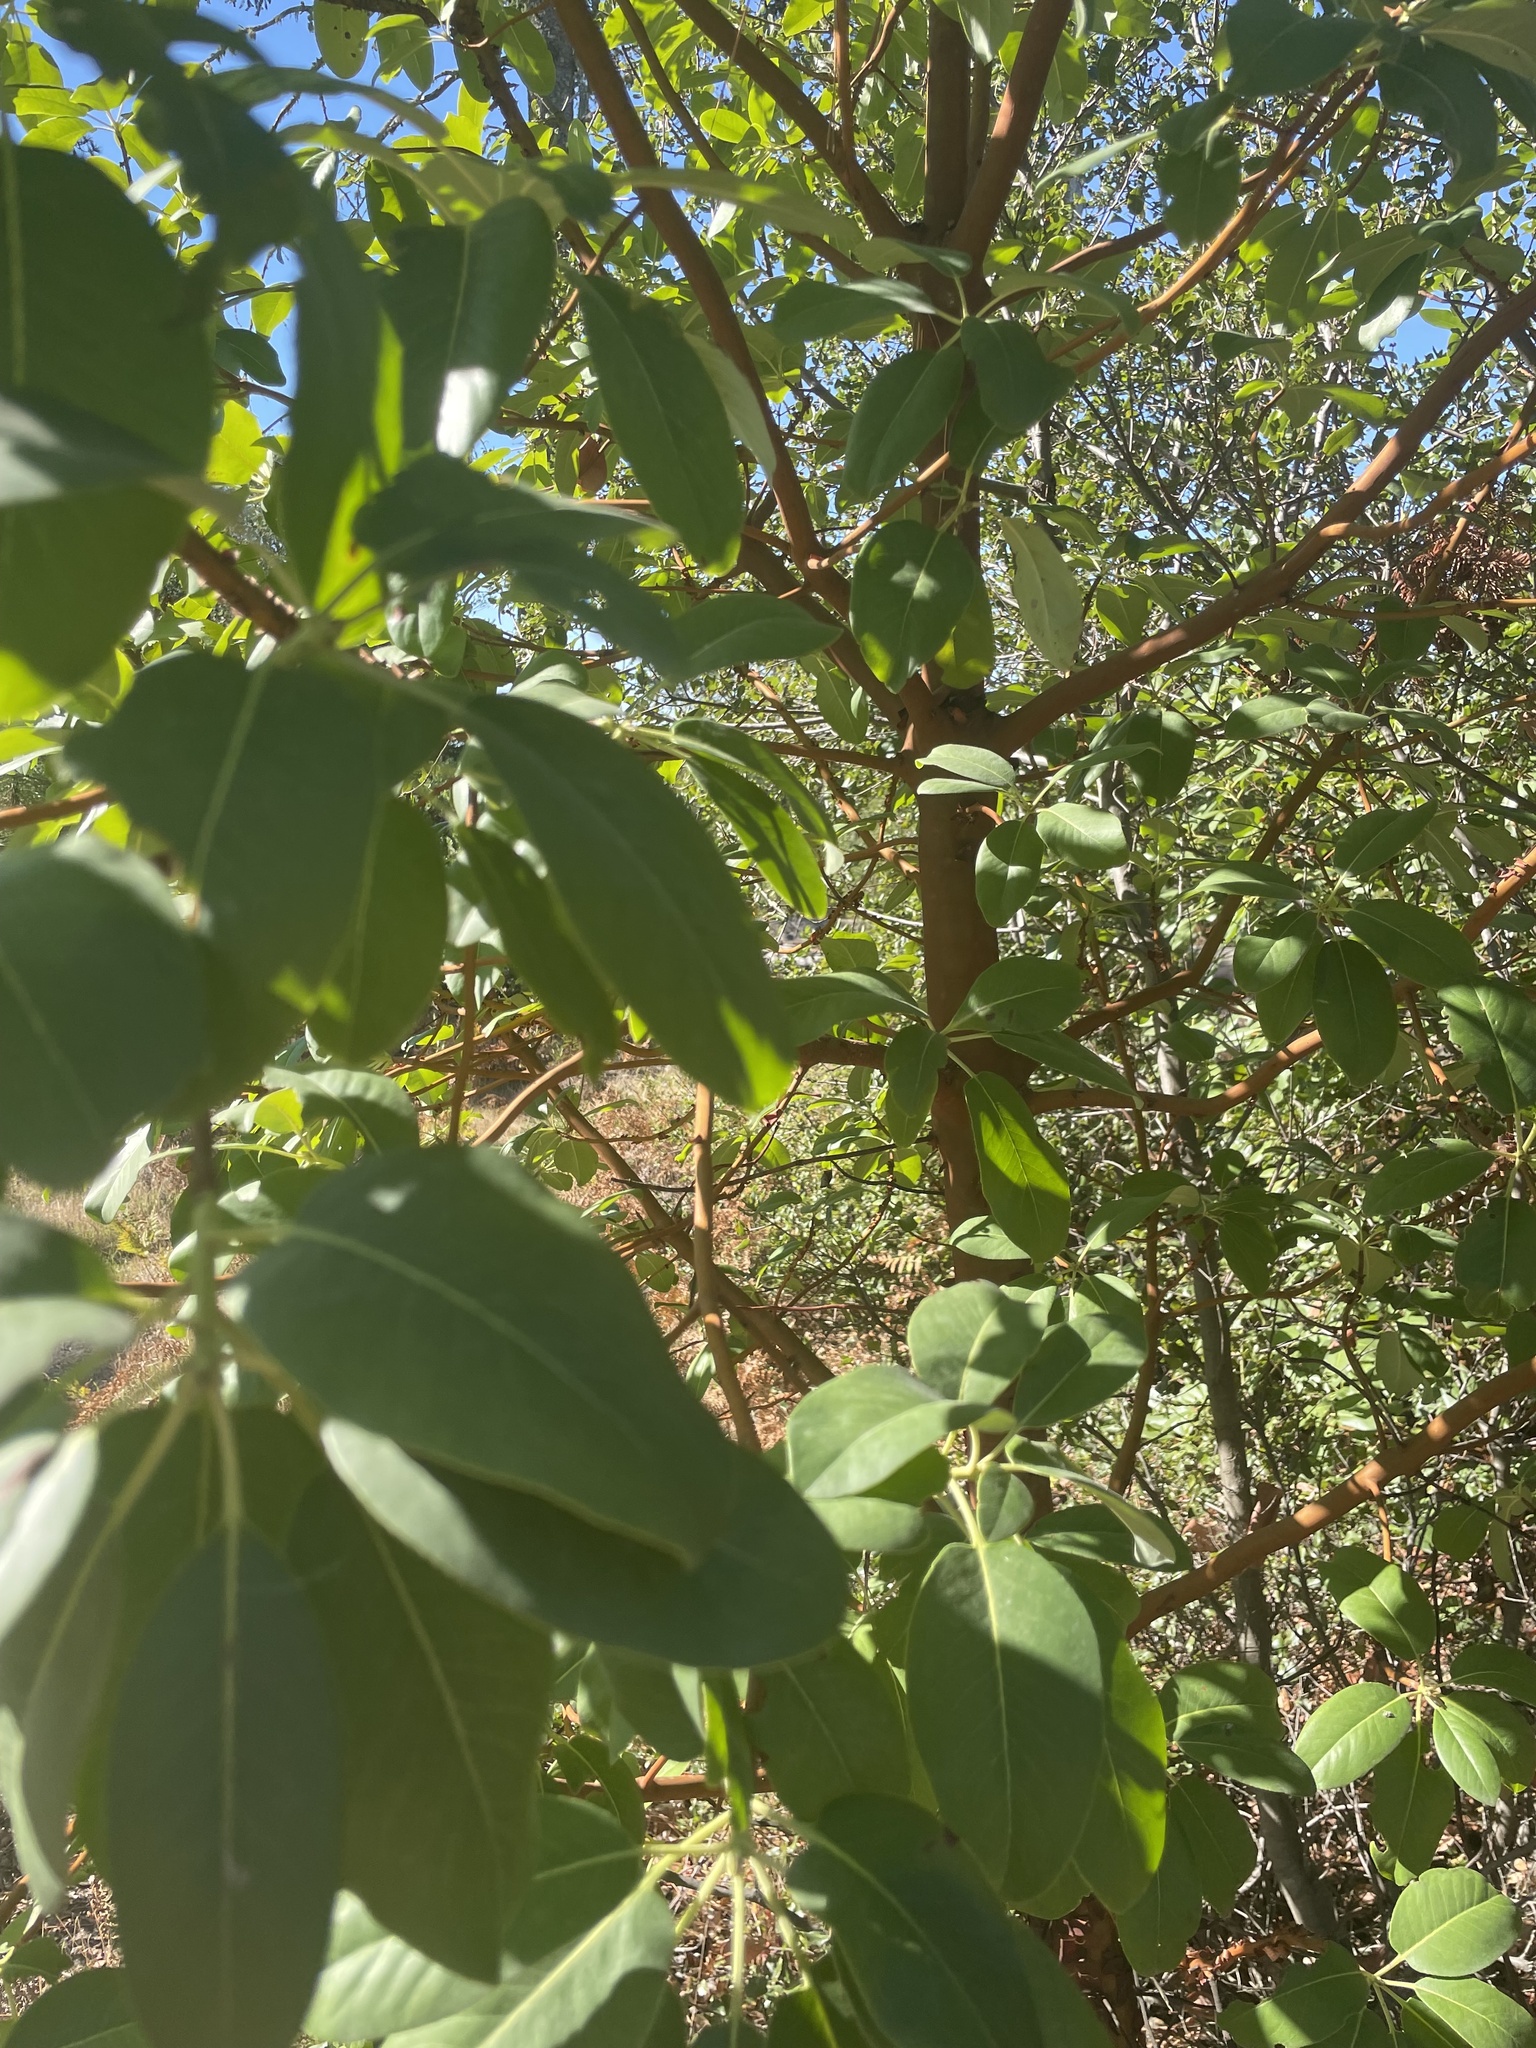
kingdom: Plantae
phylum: Tracheophyta
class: Magnoliopsida
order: Ericales
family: Ericaceae
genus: Arbutus
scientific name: Arbutus menziesii
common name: Pacific madrone
